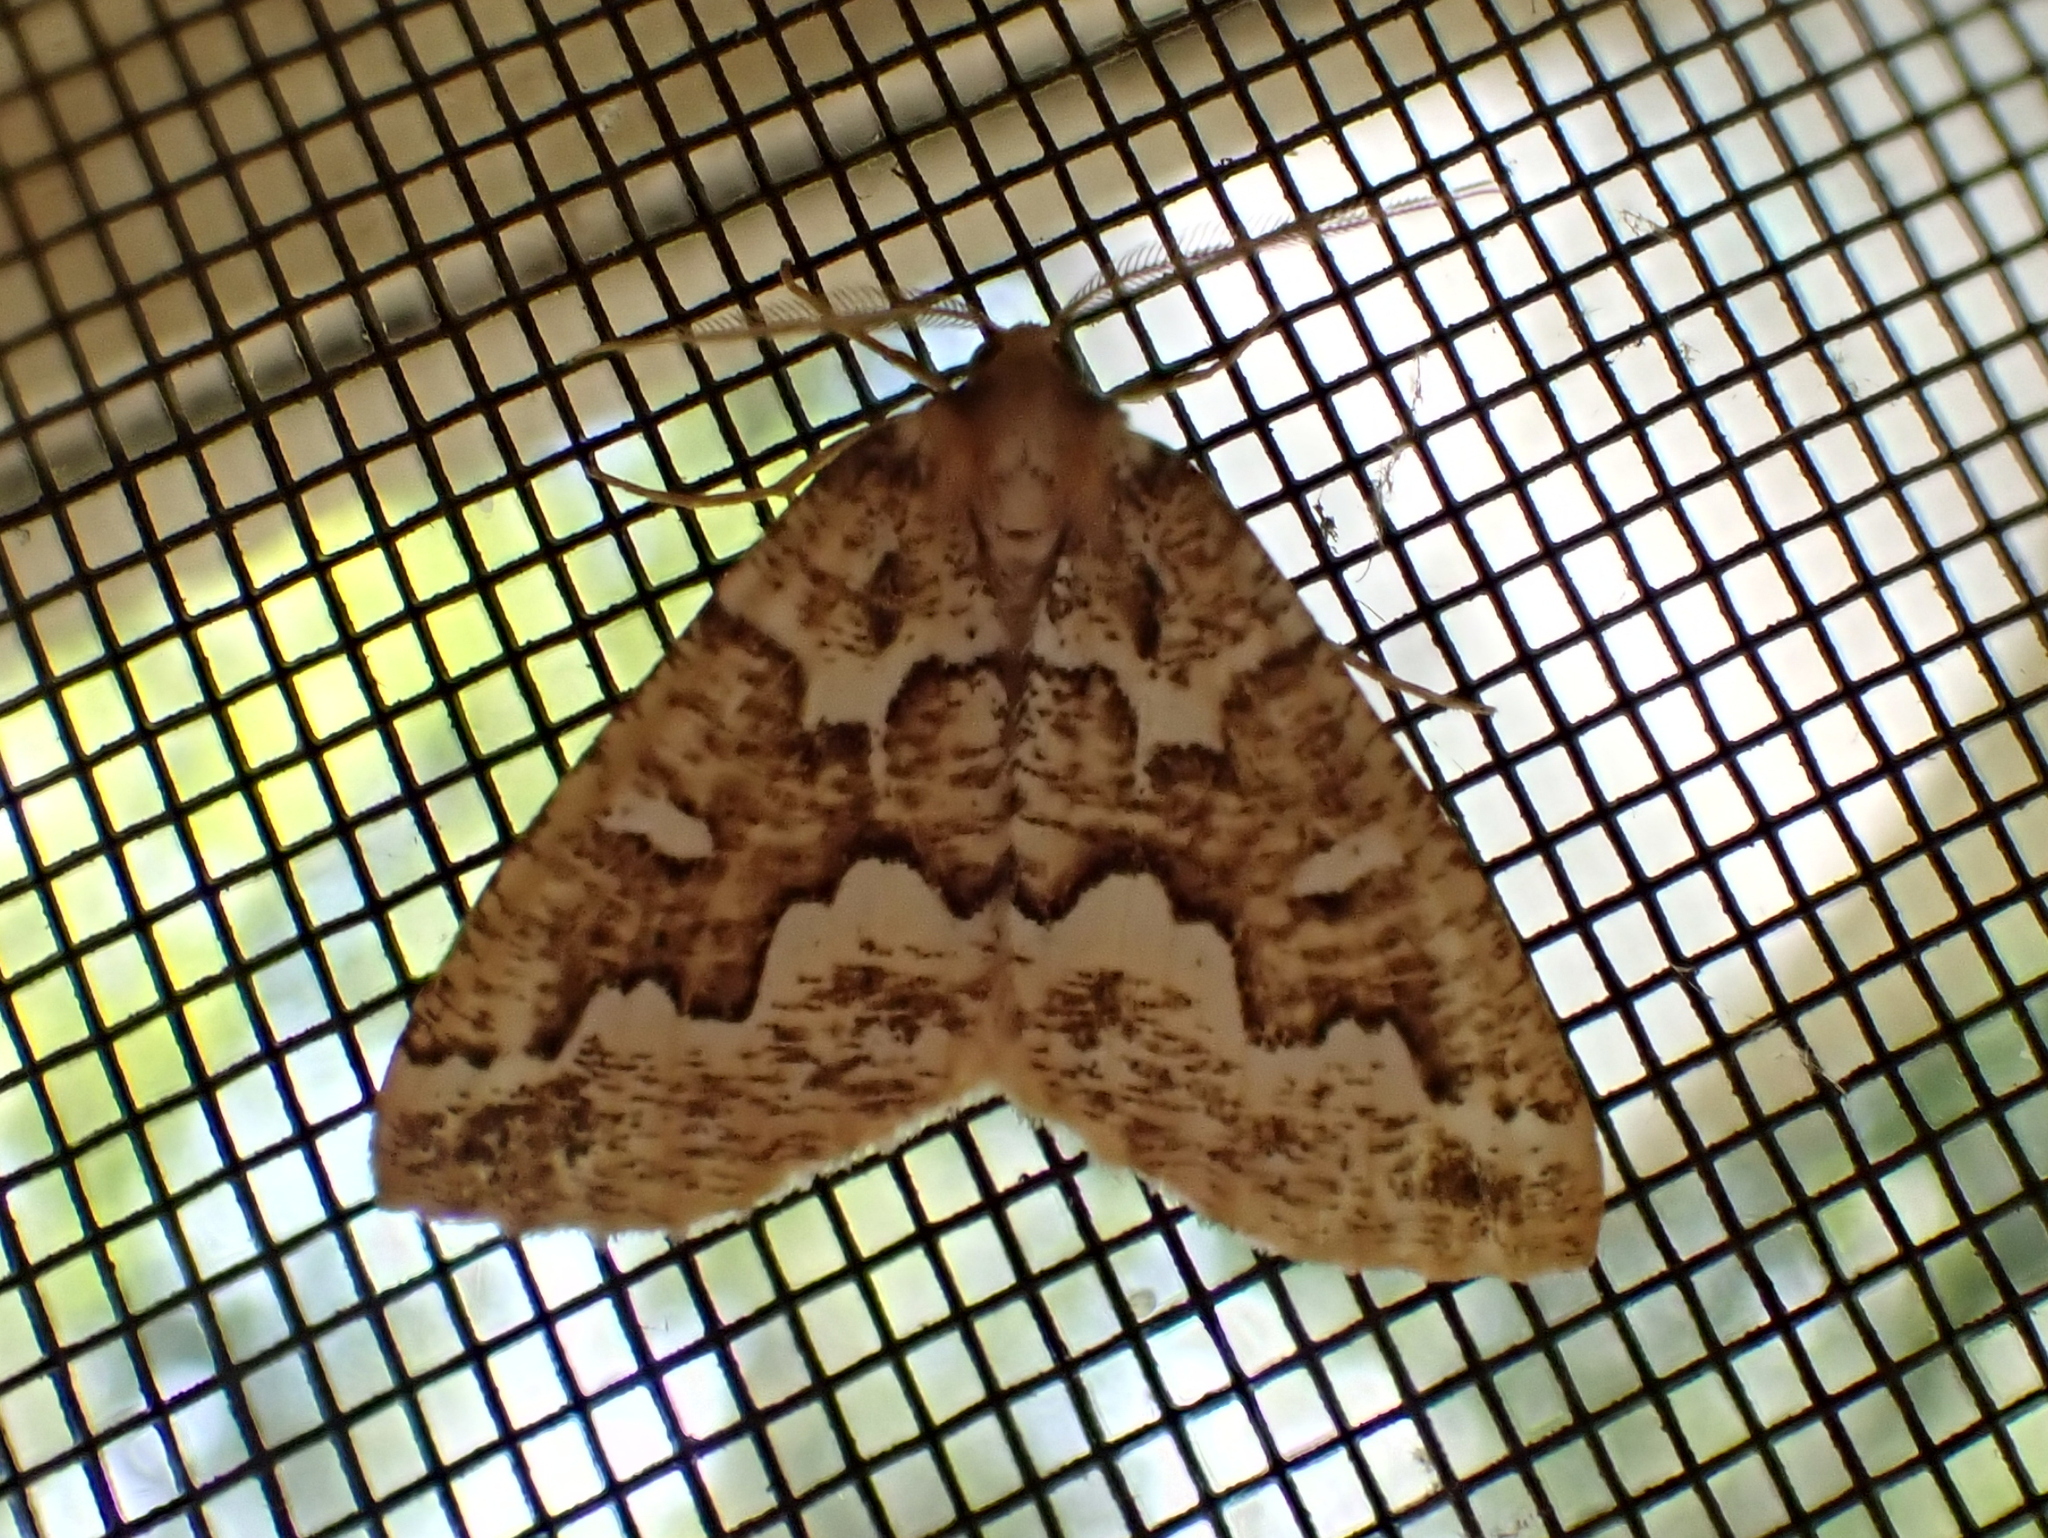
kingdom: Animalia
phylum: Arthropoda
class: Insecta
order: Lepidoptera
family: Geometridae
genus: Caripeta
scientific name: Caripeta divisata
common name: Gray spruce looper
